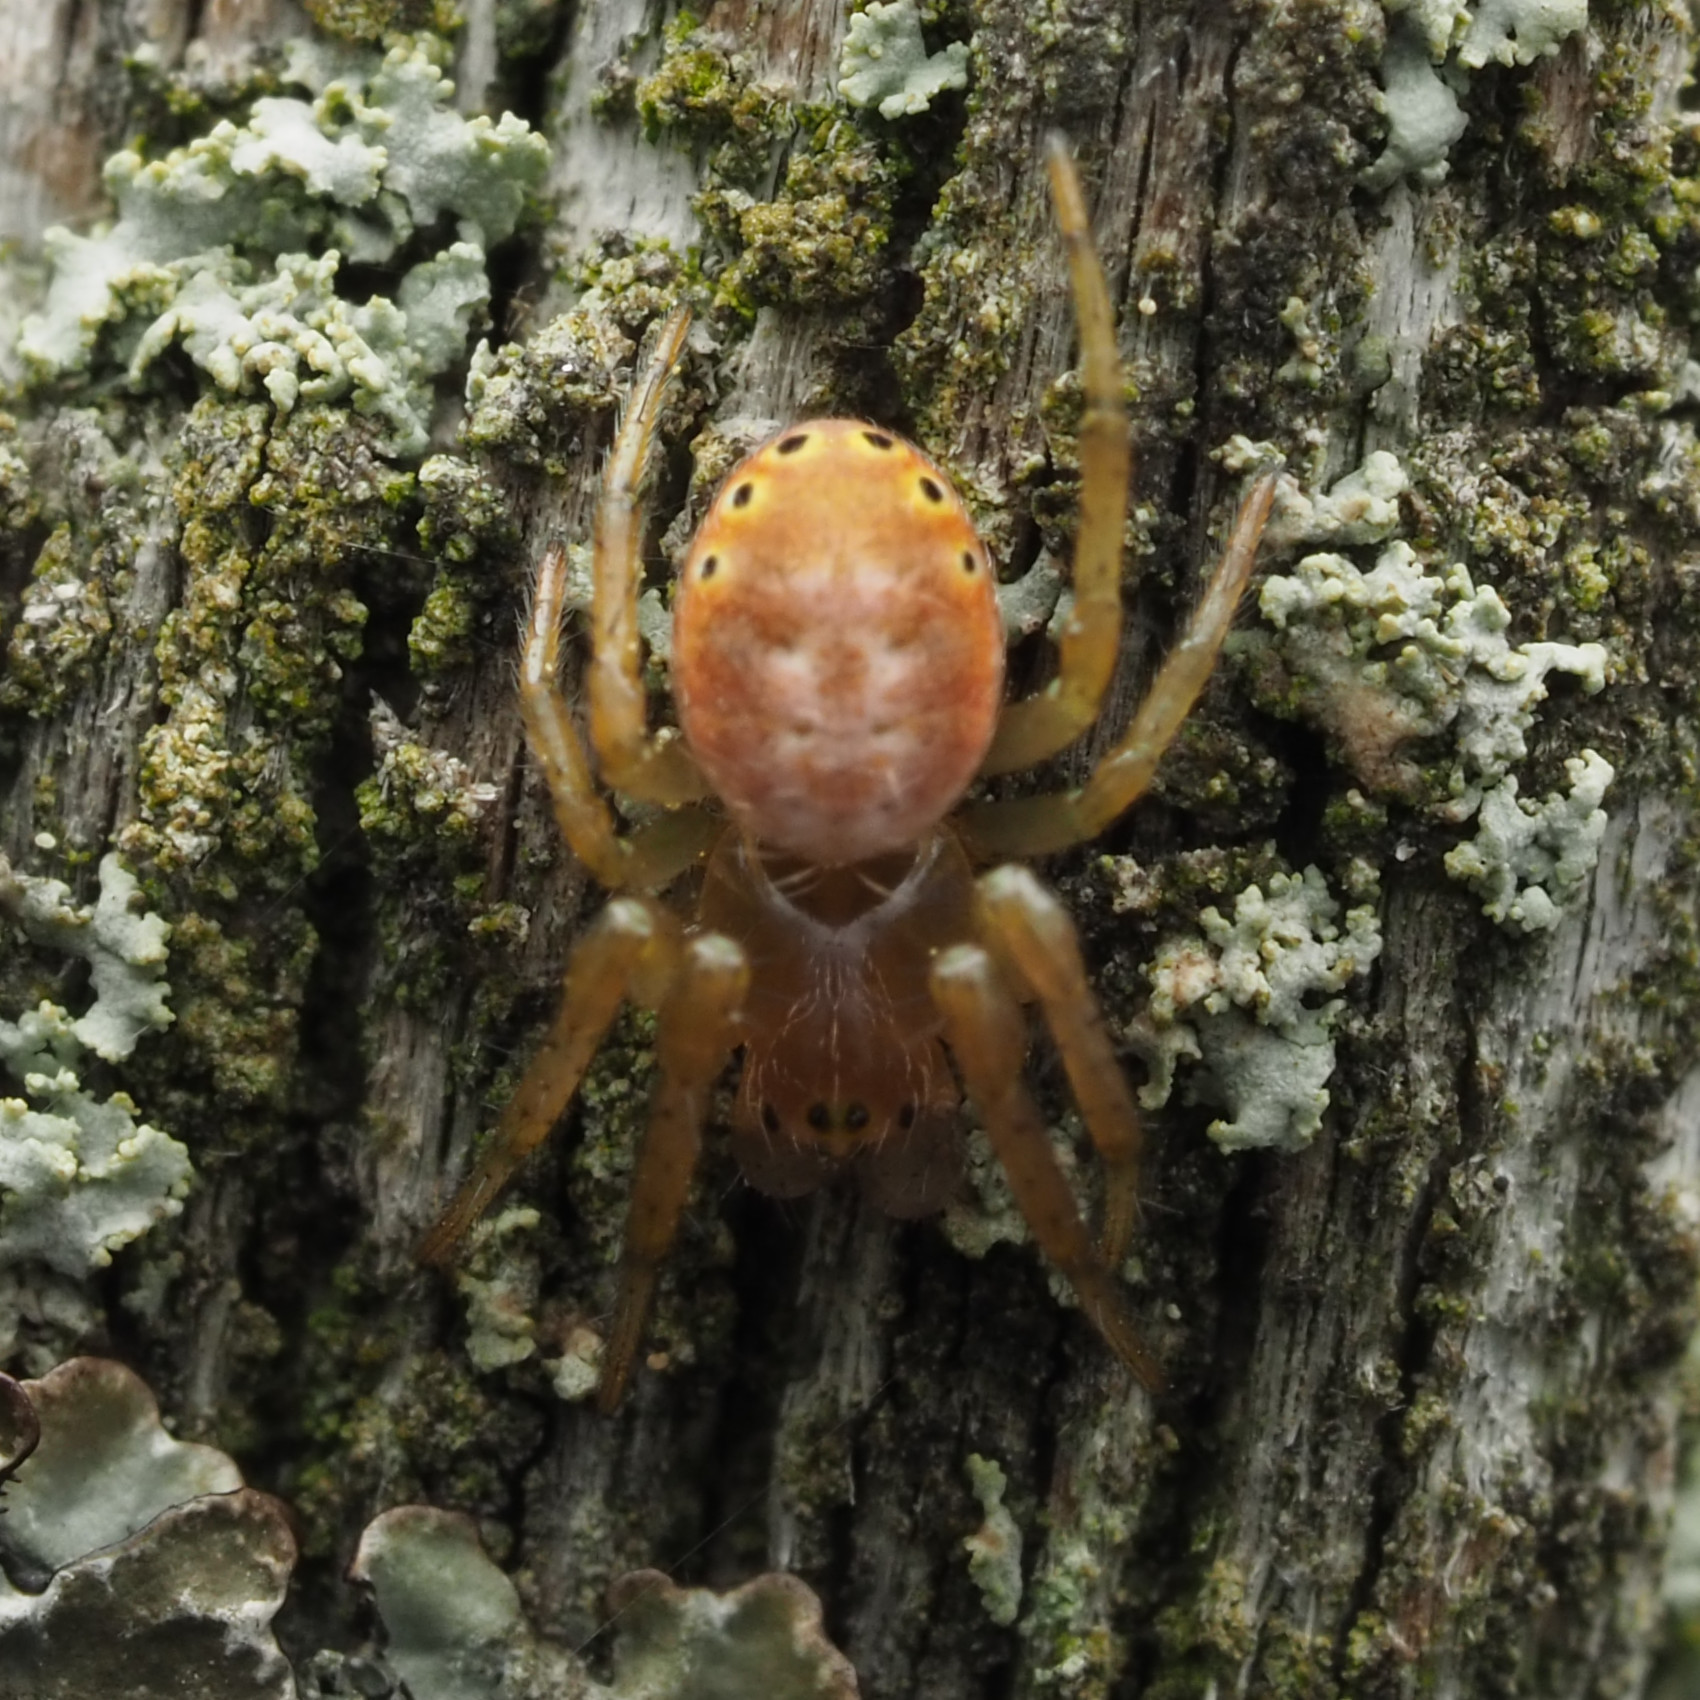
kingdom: Animalia
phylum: Arthropoda
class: Arachnida
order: Araneae
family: Araneidae
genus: Araniella
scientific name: Araniella displicata
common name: Sixspotted orb weaver
